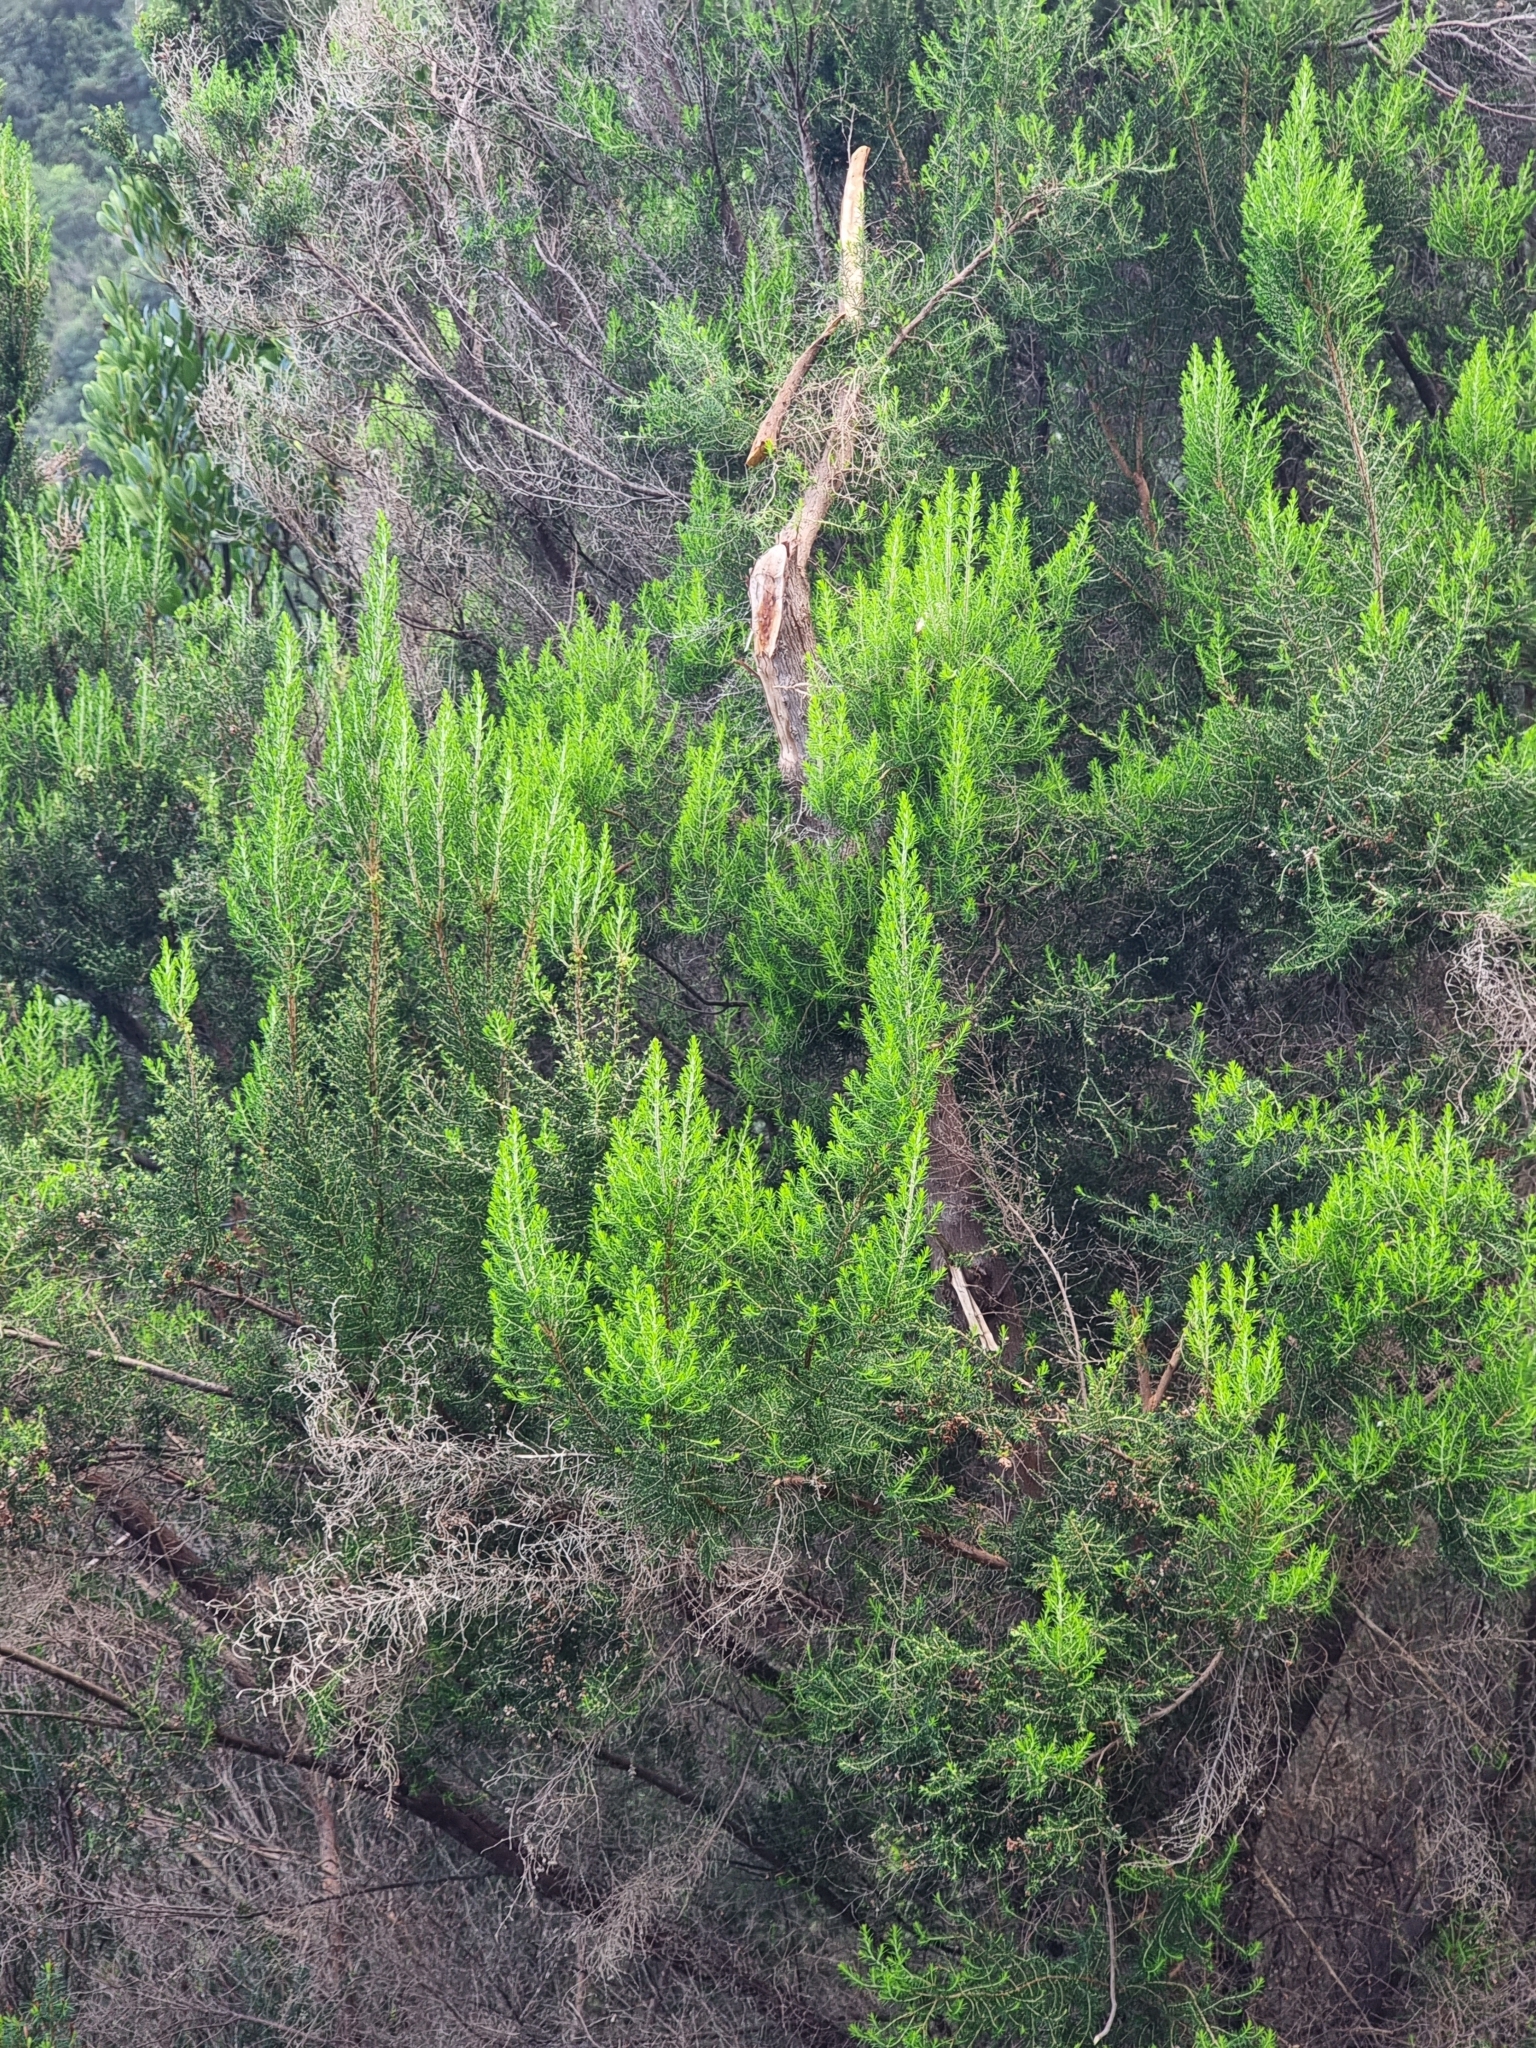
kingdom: Plantae
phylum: Tracheophyta
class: Magnoliopsida
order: Ericales
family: Ericaceae
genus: Erica
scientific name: Erica canariensis
